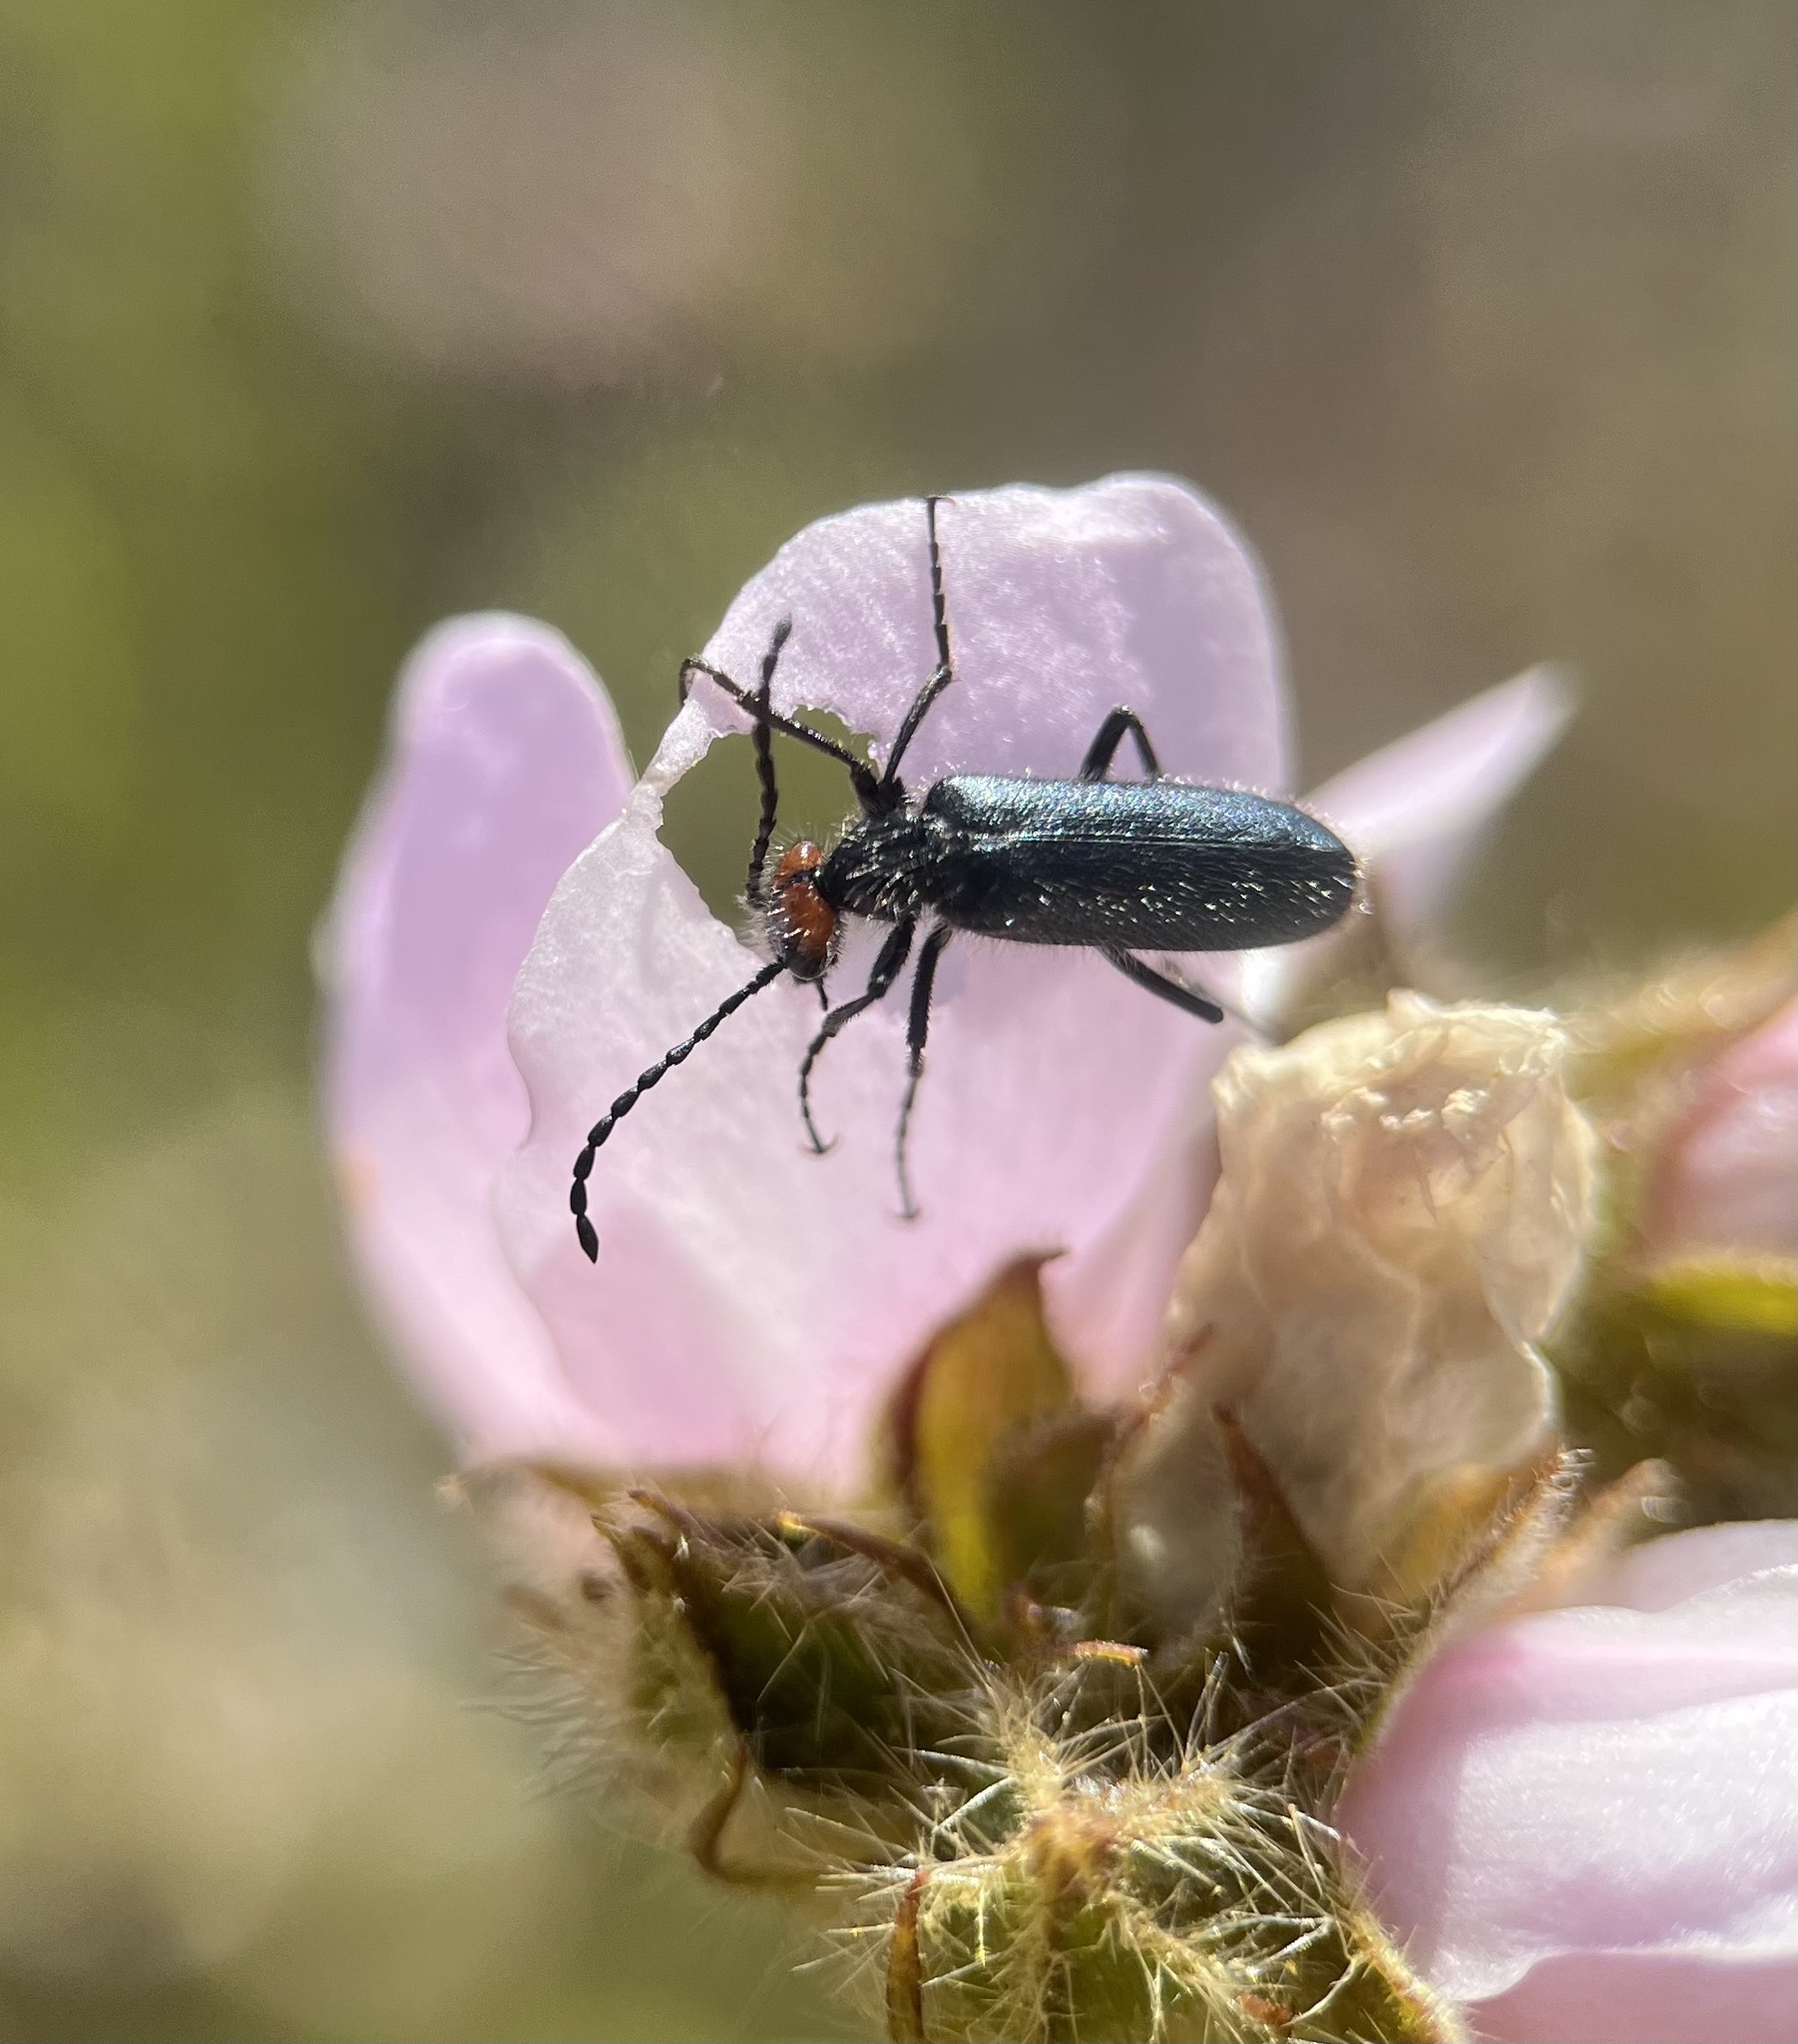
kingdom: Animalia
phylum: Arthropoda
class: Insecta
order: Coleoptera
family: Meloidae
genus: Lytta
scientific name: Lytta auriculata
